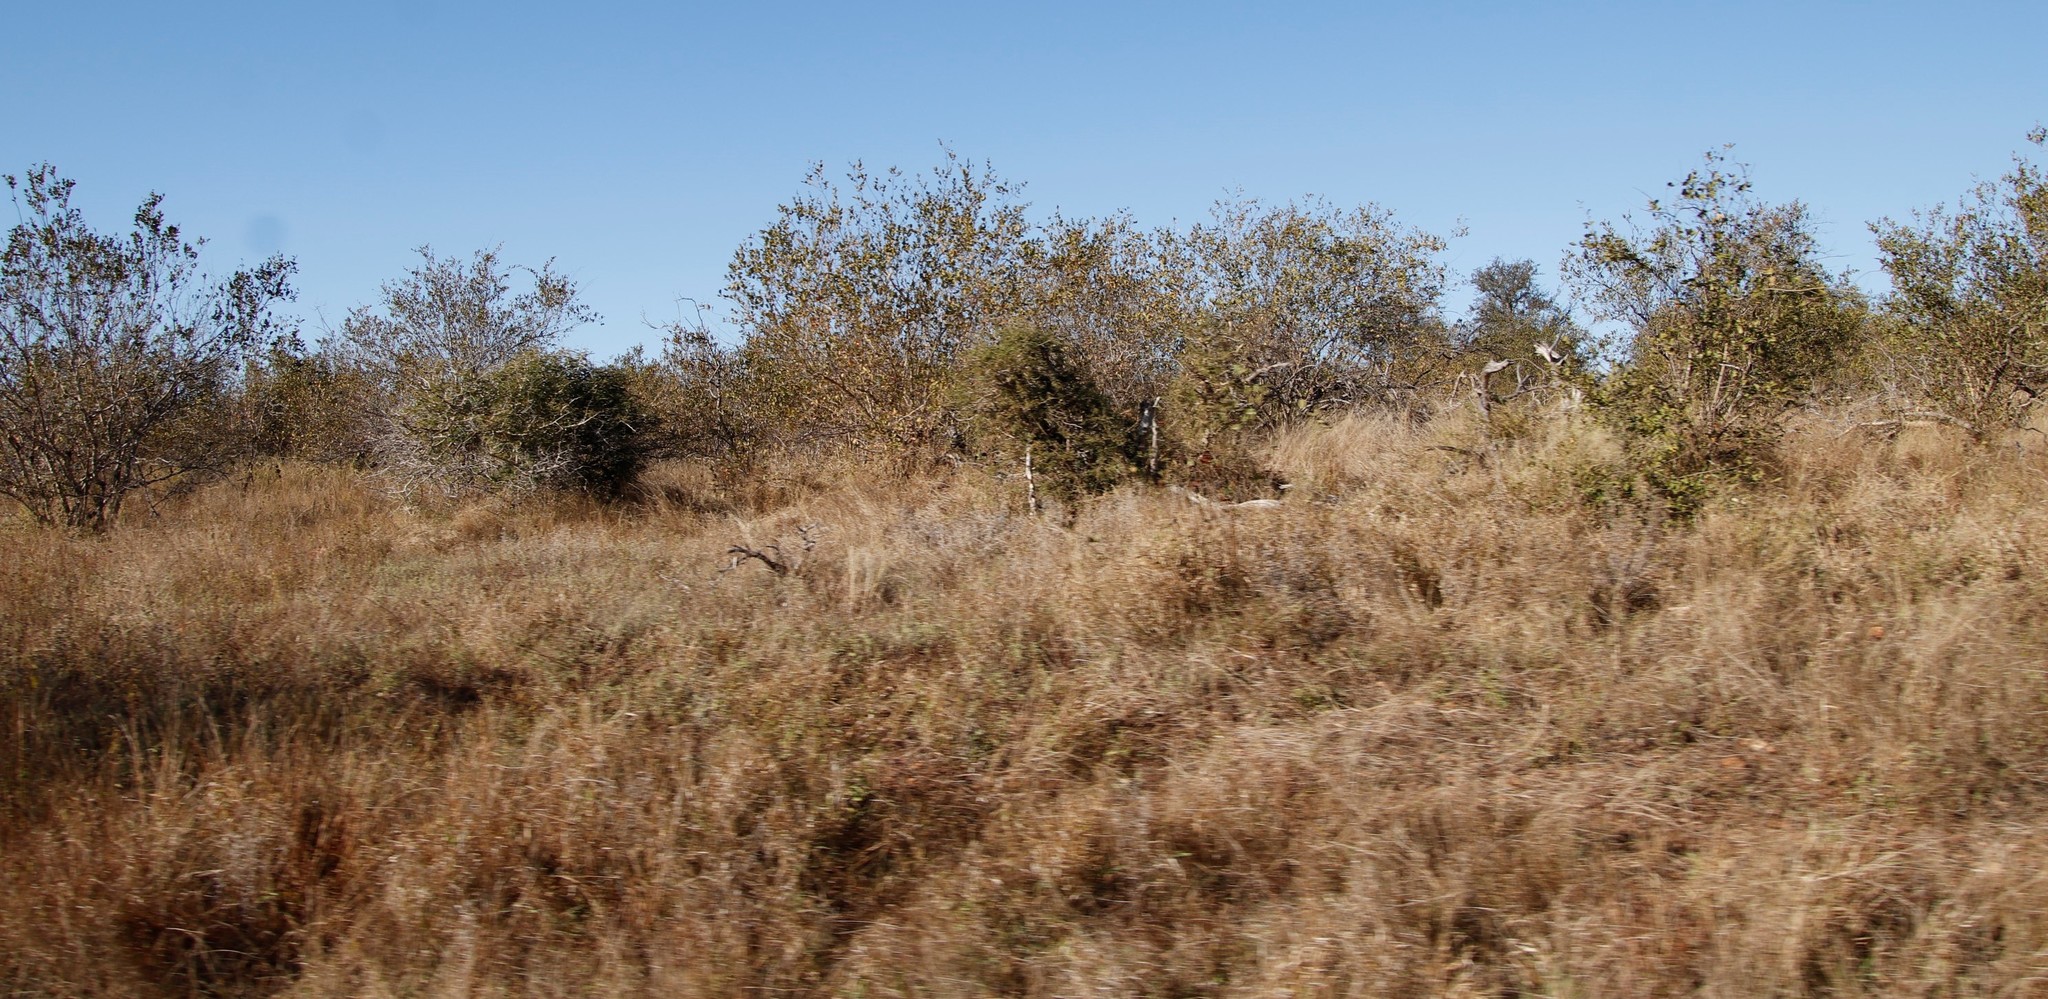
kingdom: Plantae
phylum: Tracheophyta
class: Magnoliopsida
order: Fabales
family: Fabaceae
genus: Colophospermum
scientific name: Colophospermum mopane
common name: Mopane
